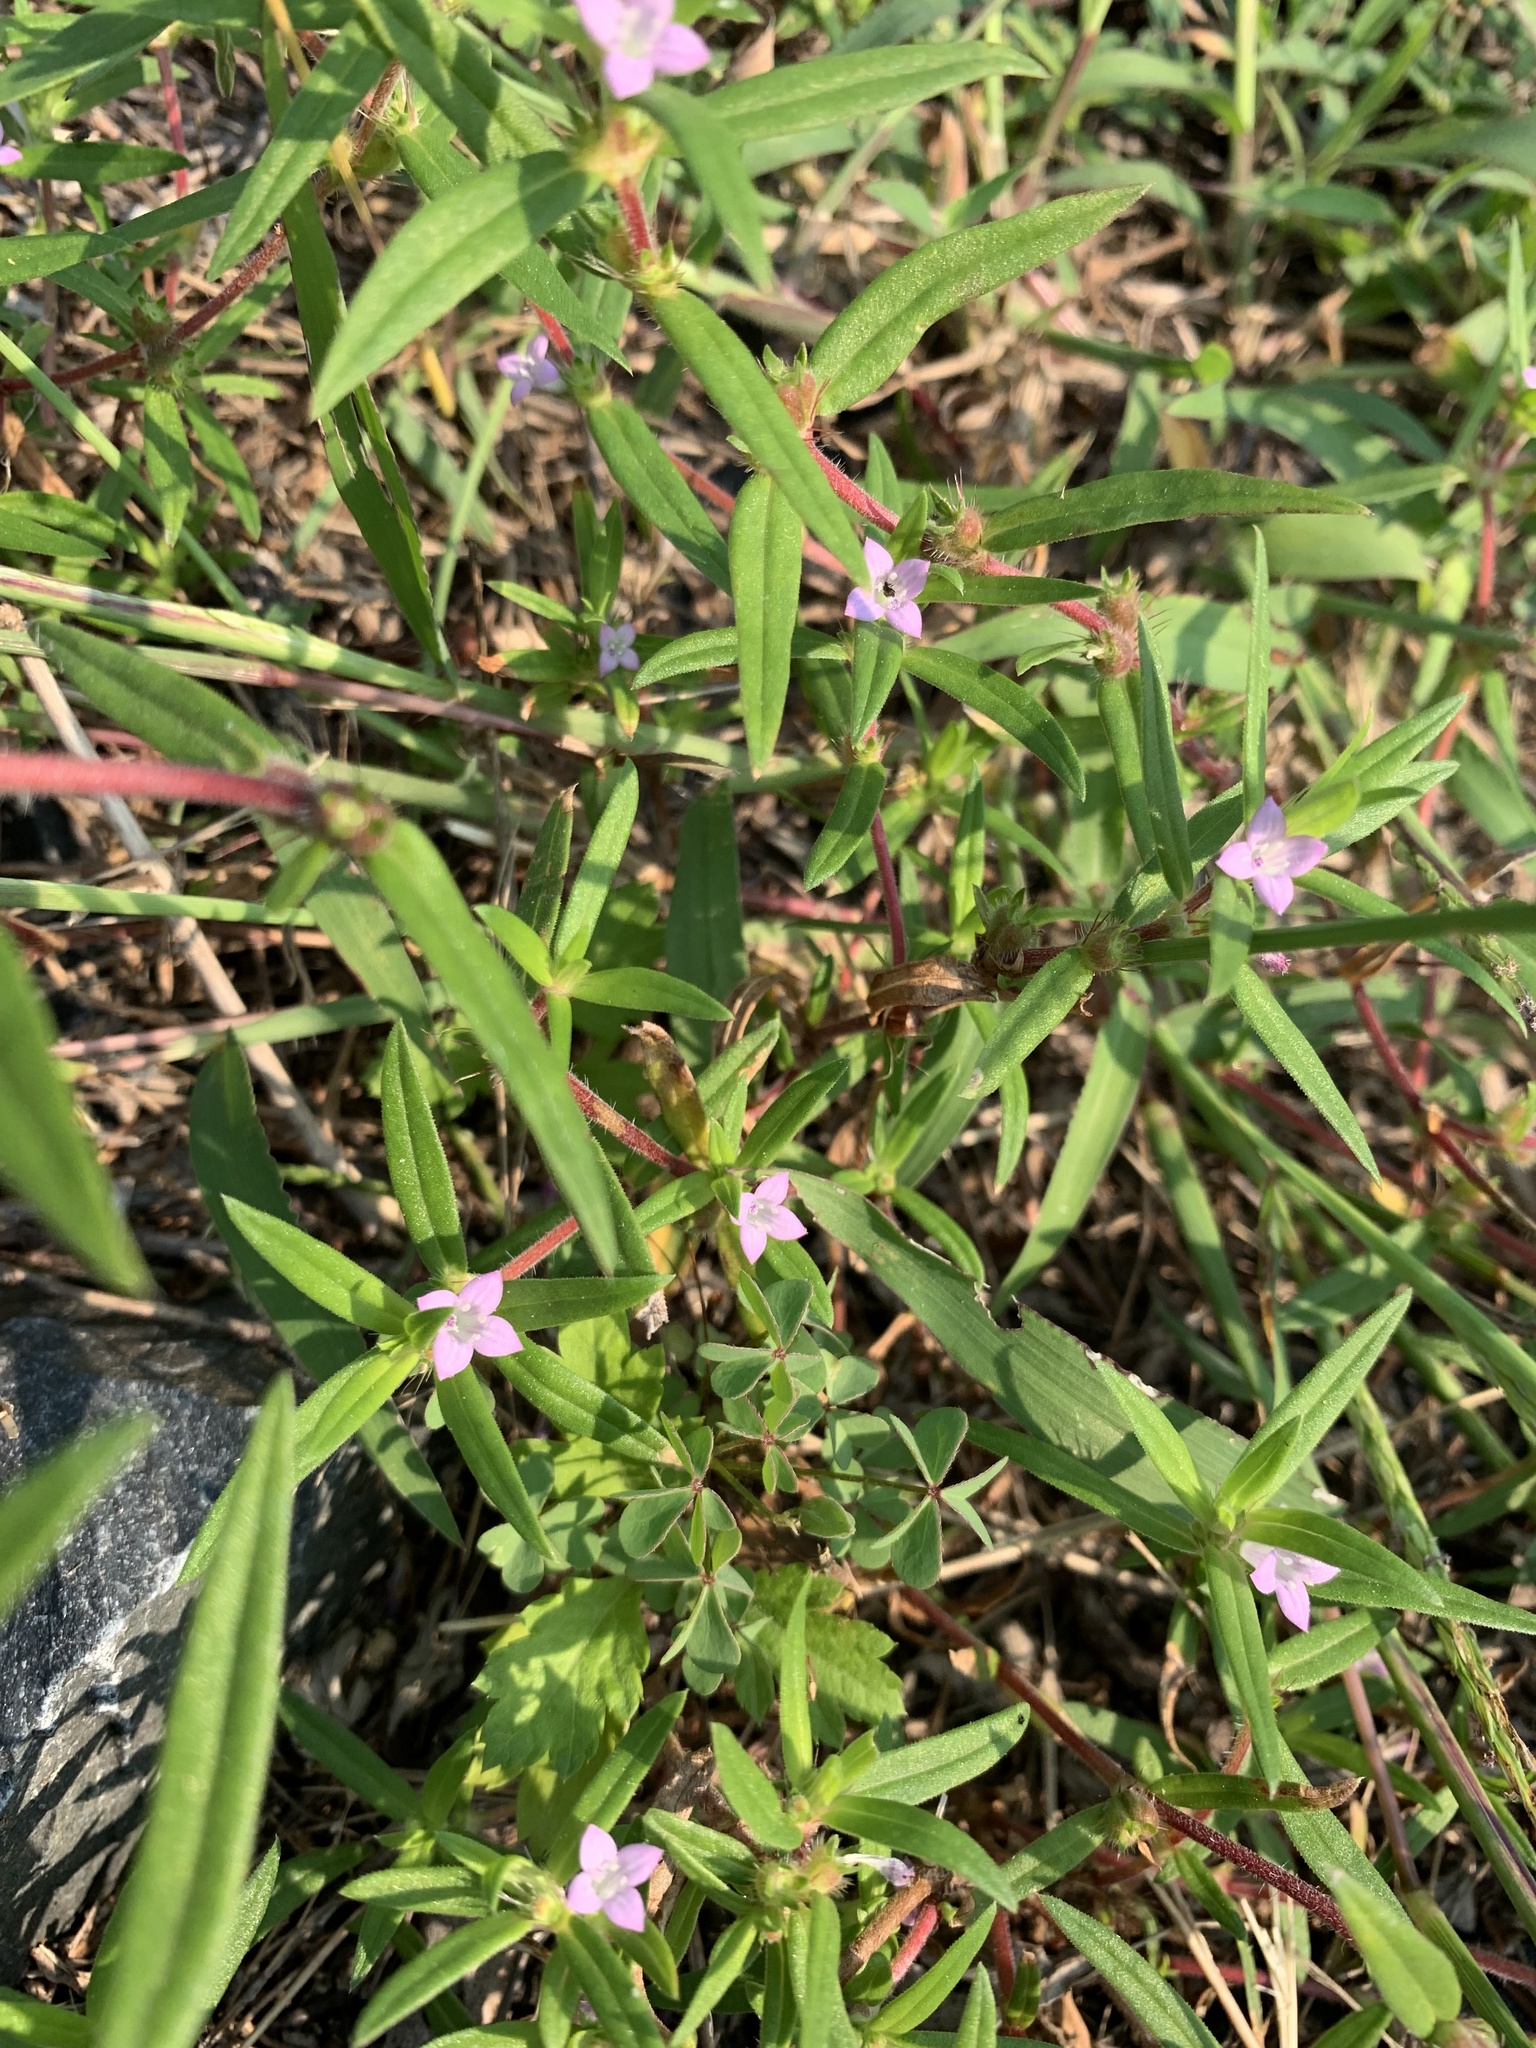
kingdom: Plantae
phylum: Tracheophyta
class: Magnoliopsida
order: Gentianales
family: Rubiaceae
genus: Hexasepalum
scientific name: Hexasepalum teres
